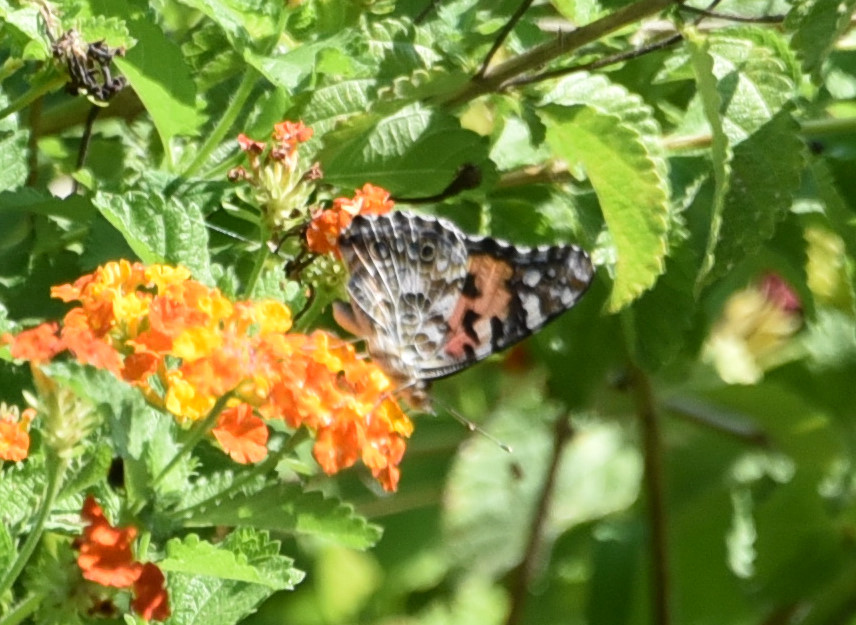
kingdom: Animalia
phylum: Arthropoda
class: Insecta
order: Lepidoptera
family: Nymphalidae
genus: Vanessa
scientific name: Vanessa cardui
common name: Painted lady
